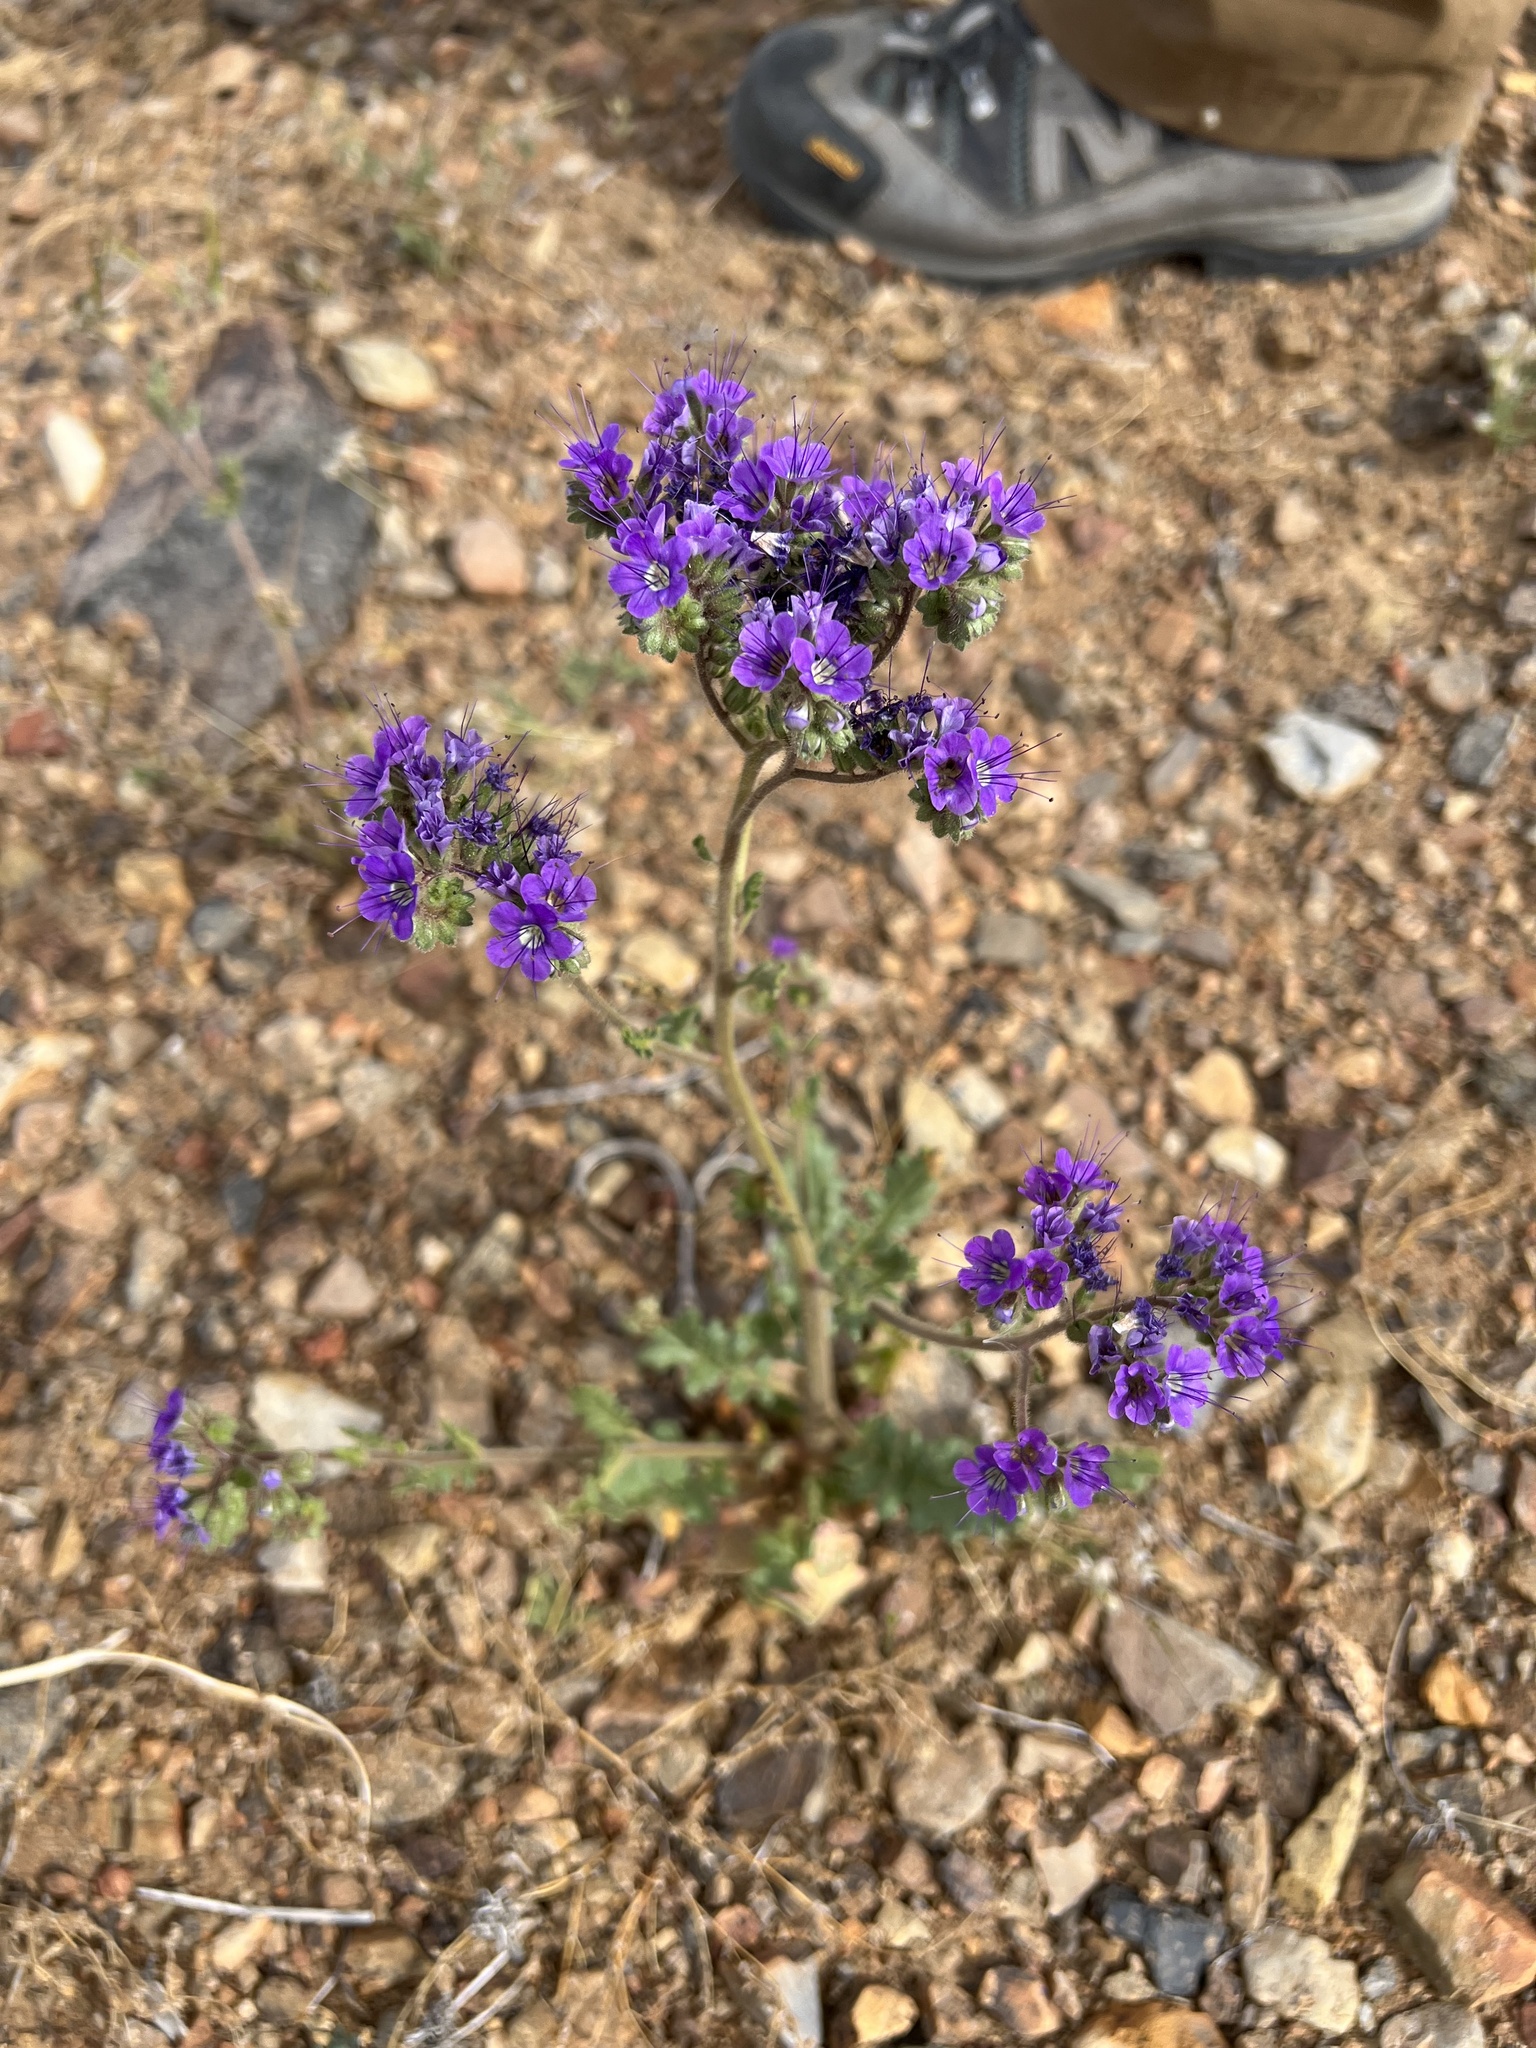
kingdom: Plantae
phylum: Tracheophyta
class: Magnoliopsida
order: Boraginales
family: Hydrophyllaceae
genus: Phacelia
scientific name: Phacelia crenulata
